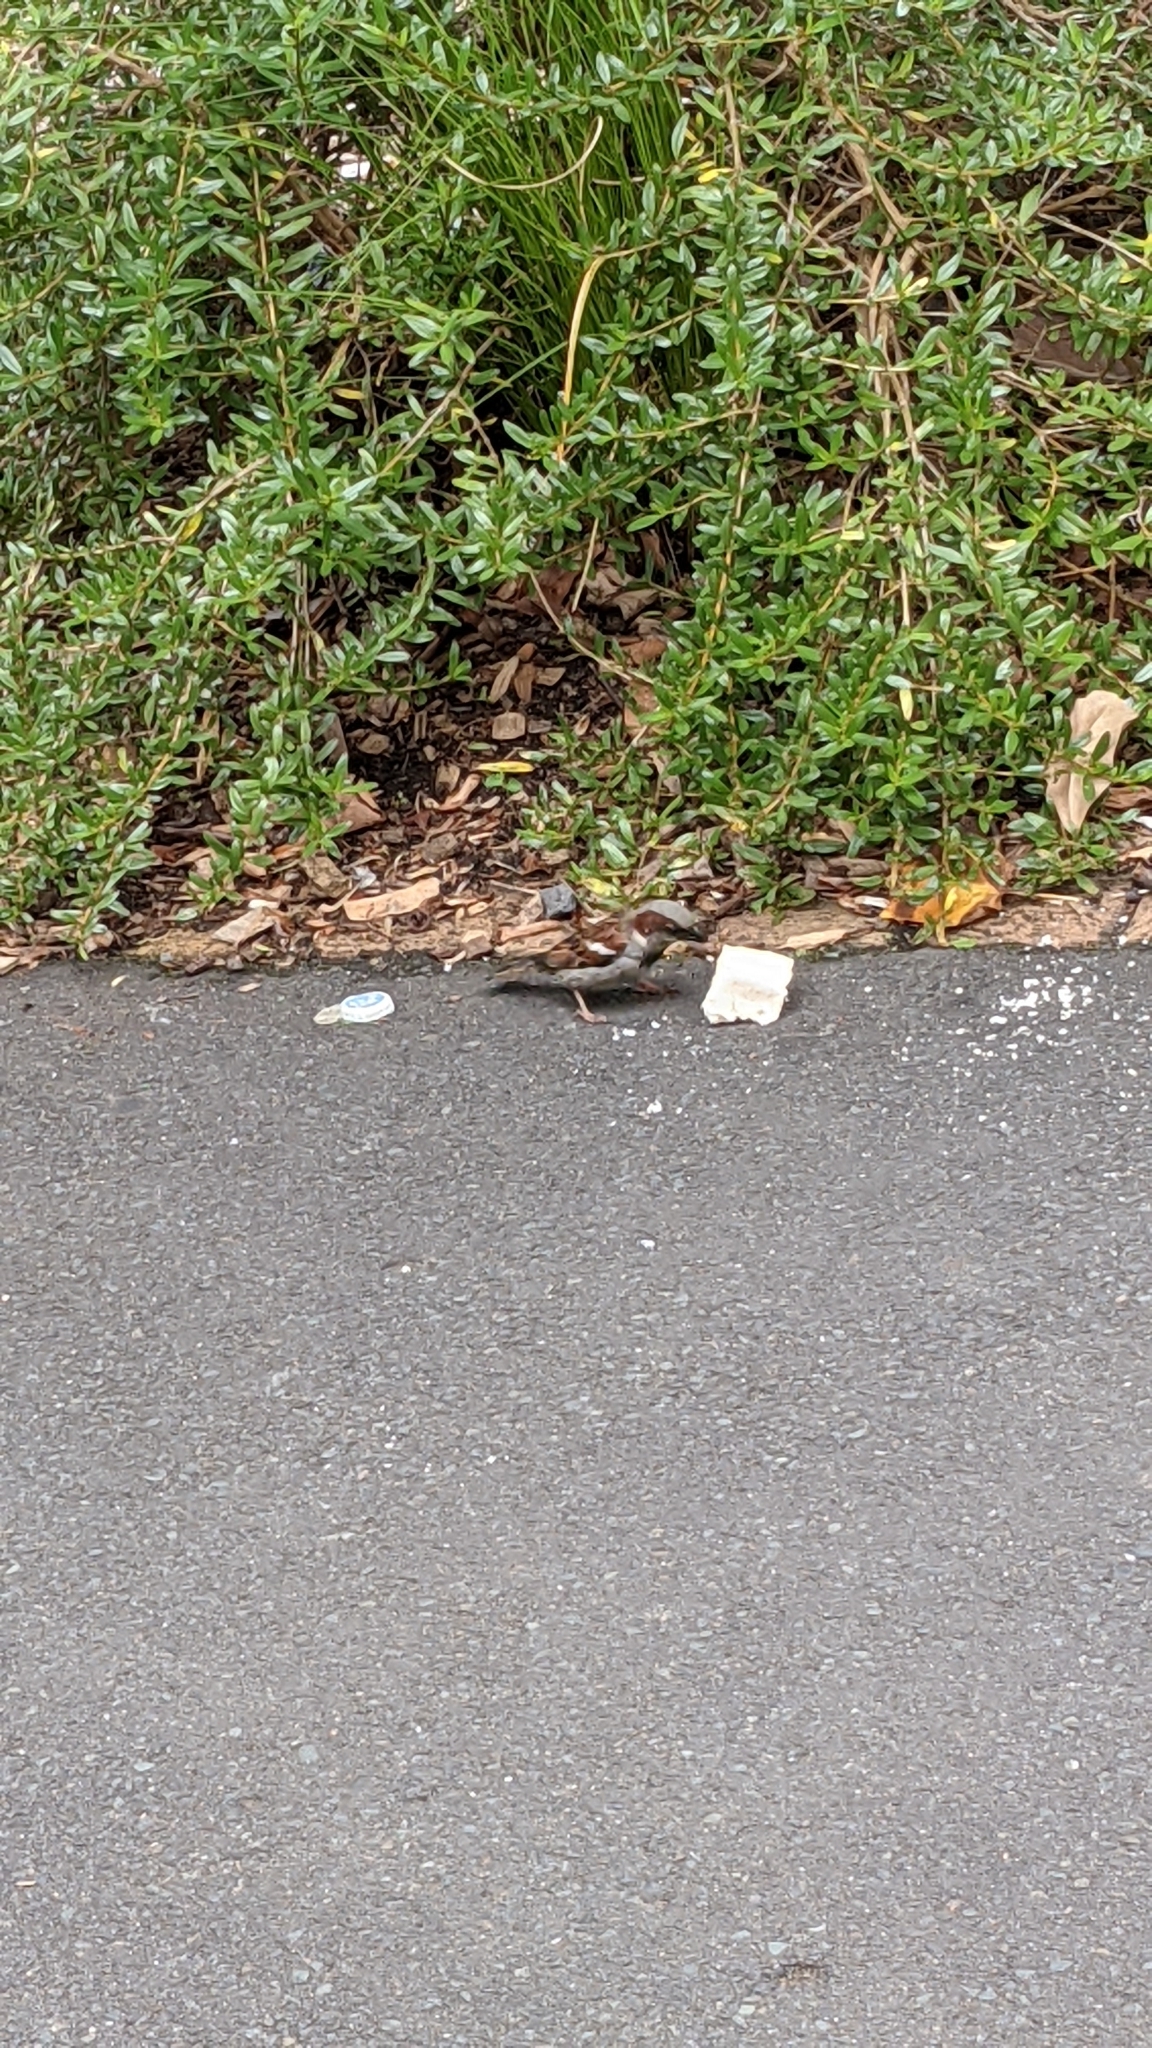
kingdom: Animalia
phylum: Chordata
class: Aves
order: Passeriformes
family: Passeridae
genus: Passer
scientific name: Passer domesticus
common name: House sparrow
